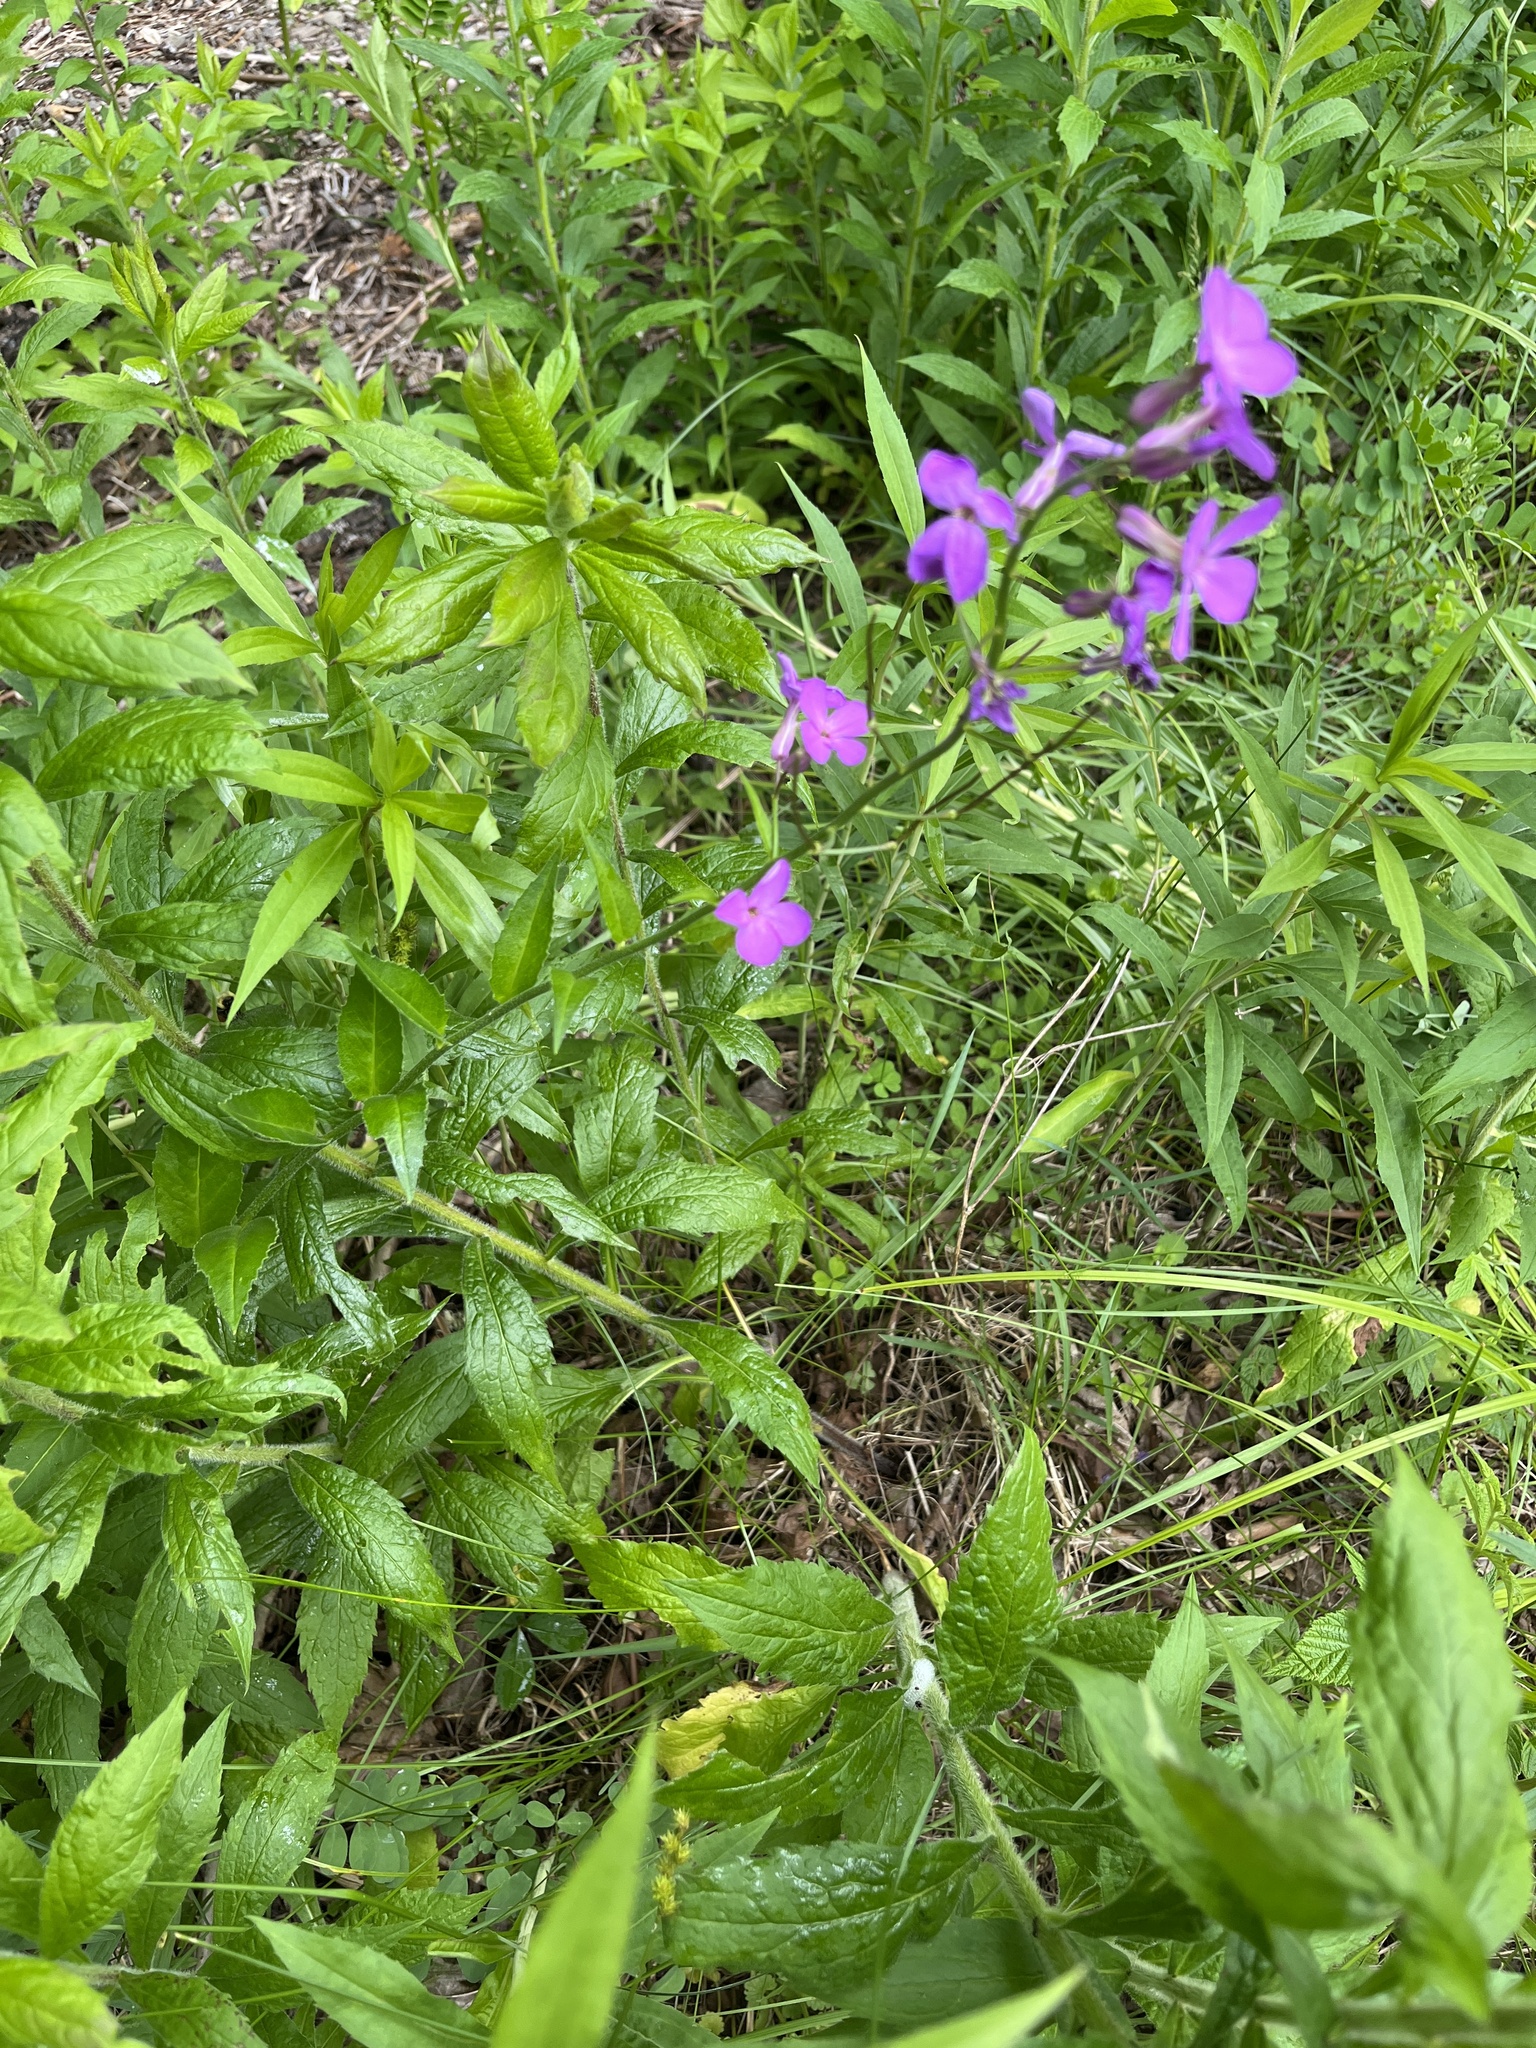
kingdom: Plantae
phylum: Tracheophyta
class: Magnoliopsida
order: Brassicales
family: Brassicaceae
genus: Hesperis
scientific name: Hesperis matronalis
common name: Dame's-violet
